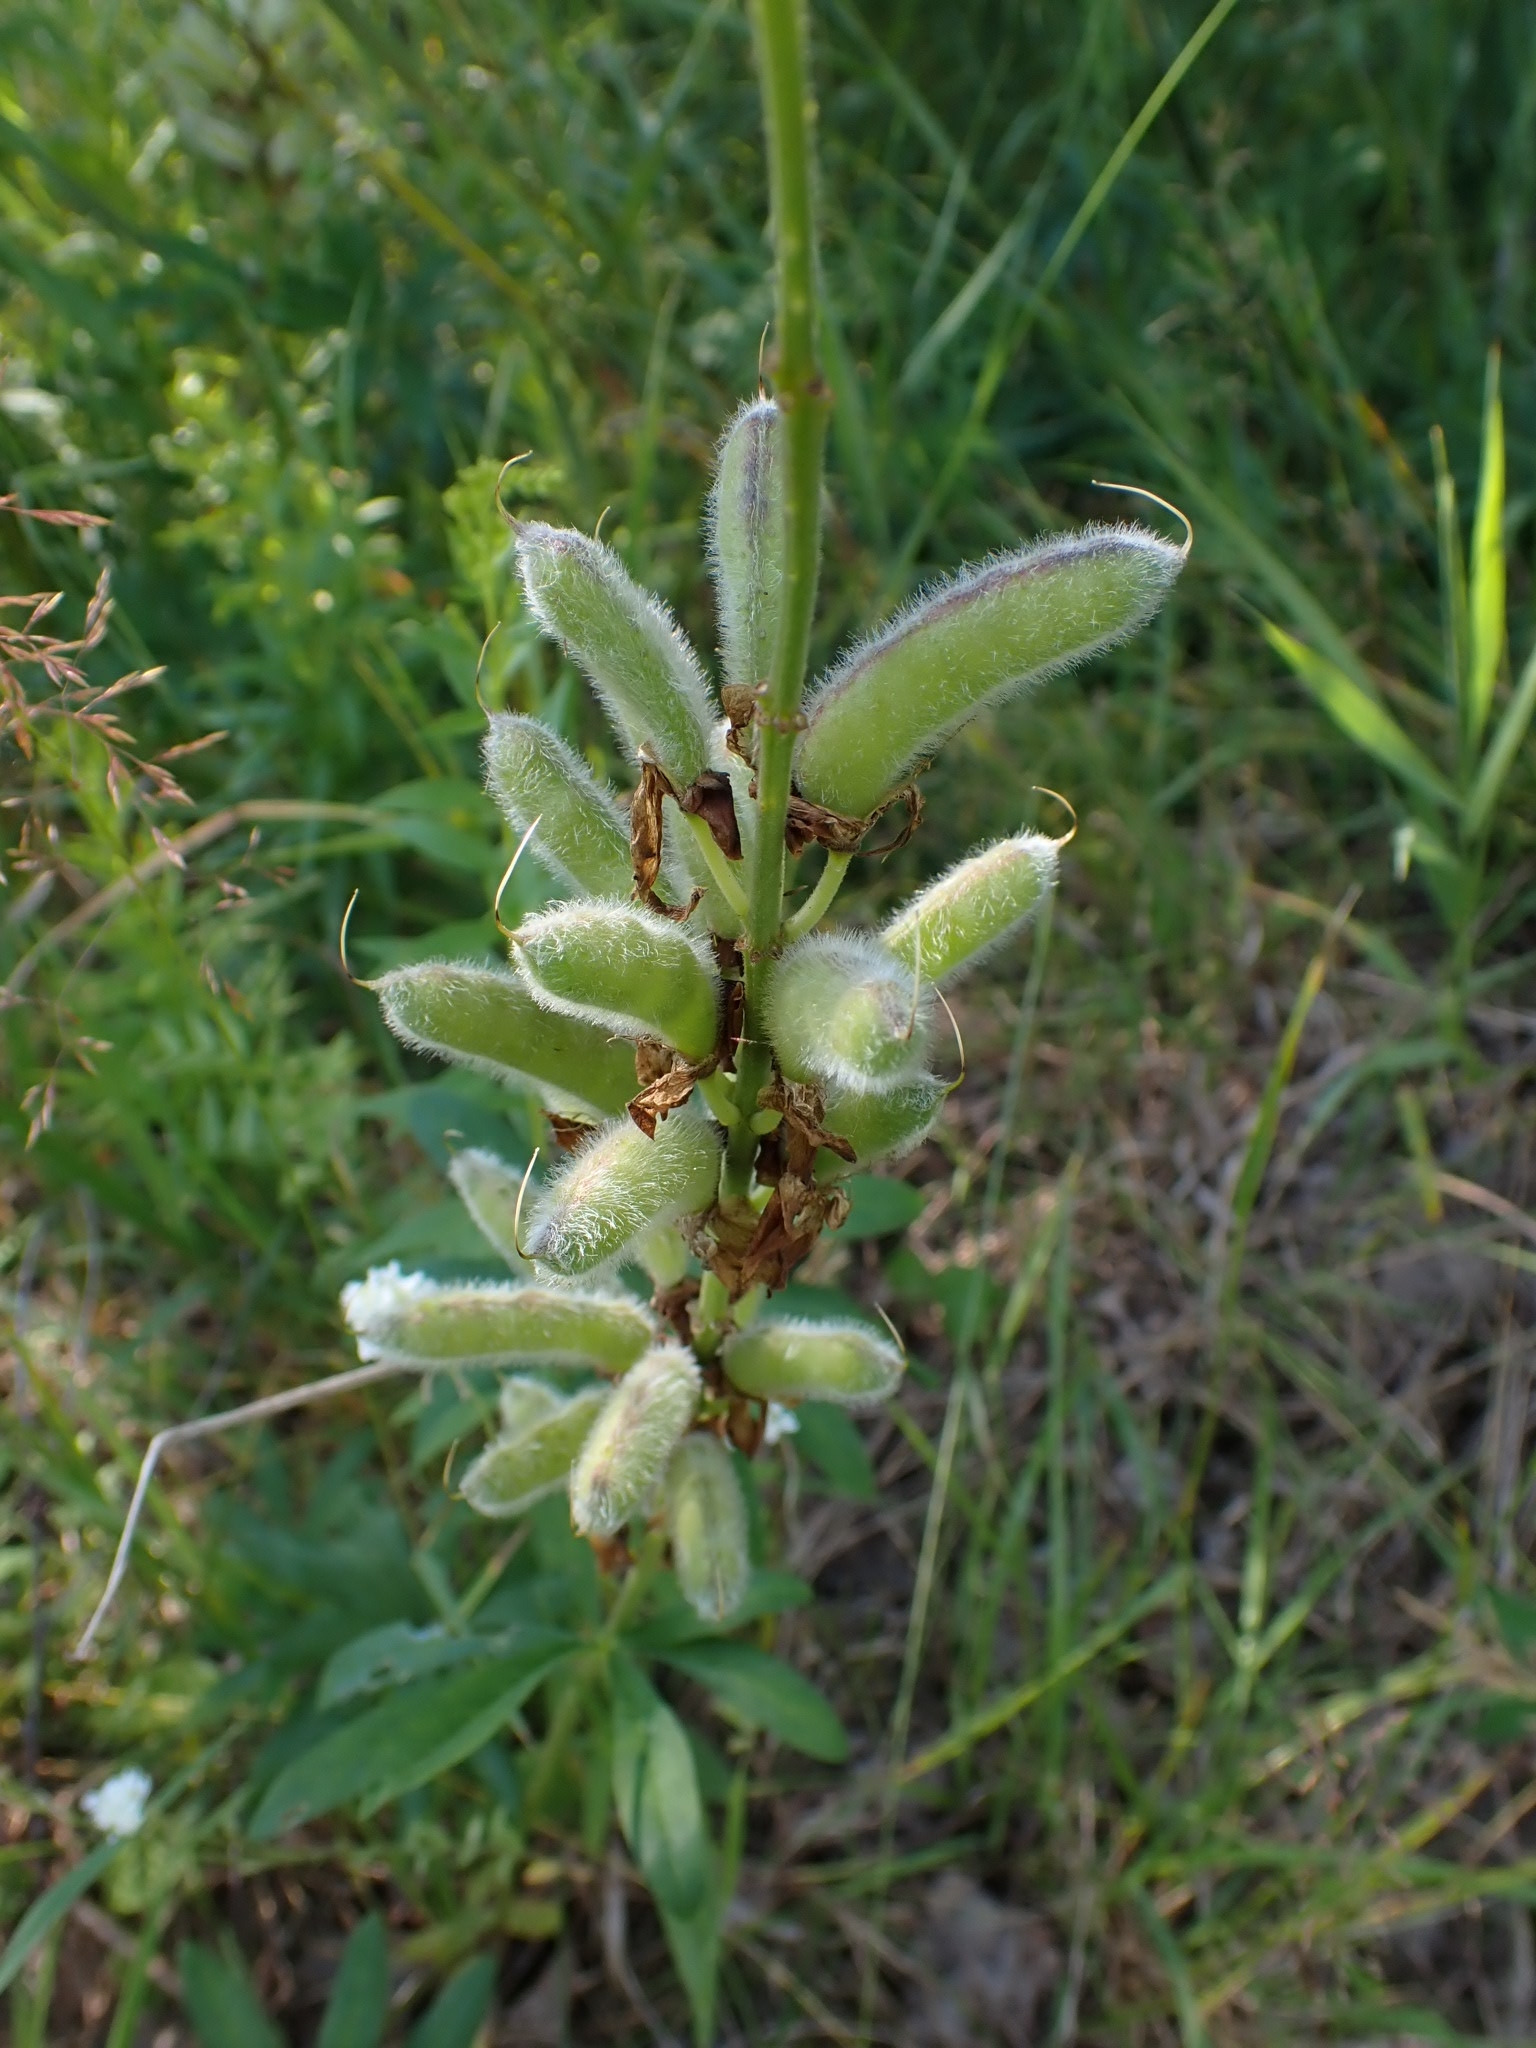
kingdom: Plantae
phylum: Tracheophyta
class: Magnoliopsida
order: Fabales
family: Fabaceae
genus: Lupinus
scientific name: Lupinus polyphyllus
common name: Garden lupin
